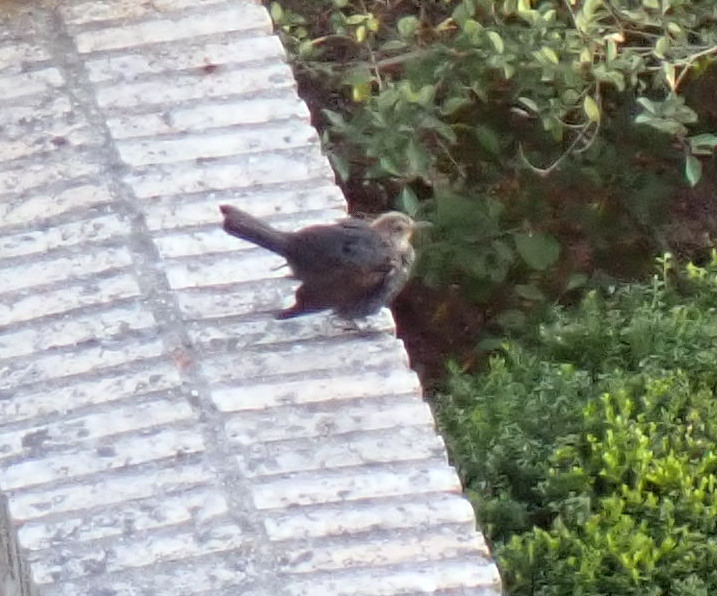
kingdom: Animalia
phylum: Chordata
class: Aves
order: Passeriformes
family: Turdidae
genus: Turdus
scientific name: Turdus merula
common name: Common blackbird
